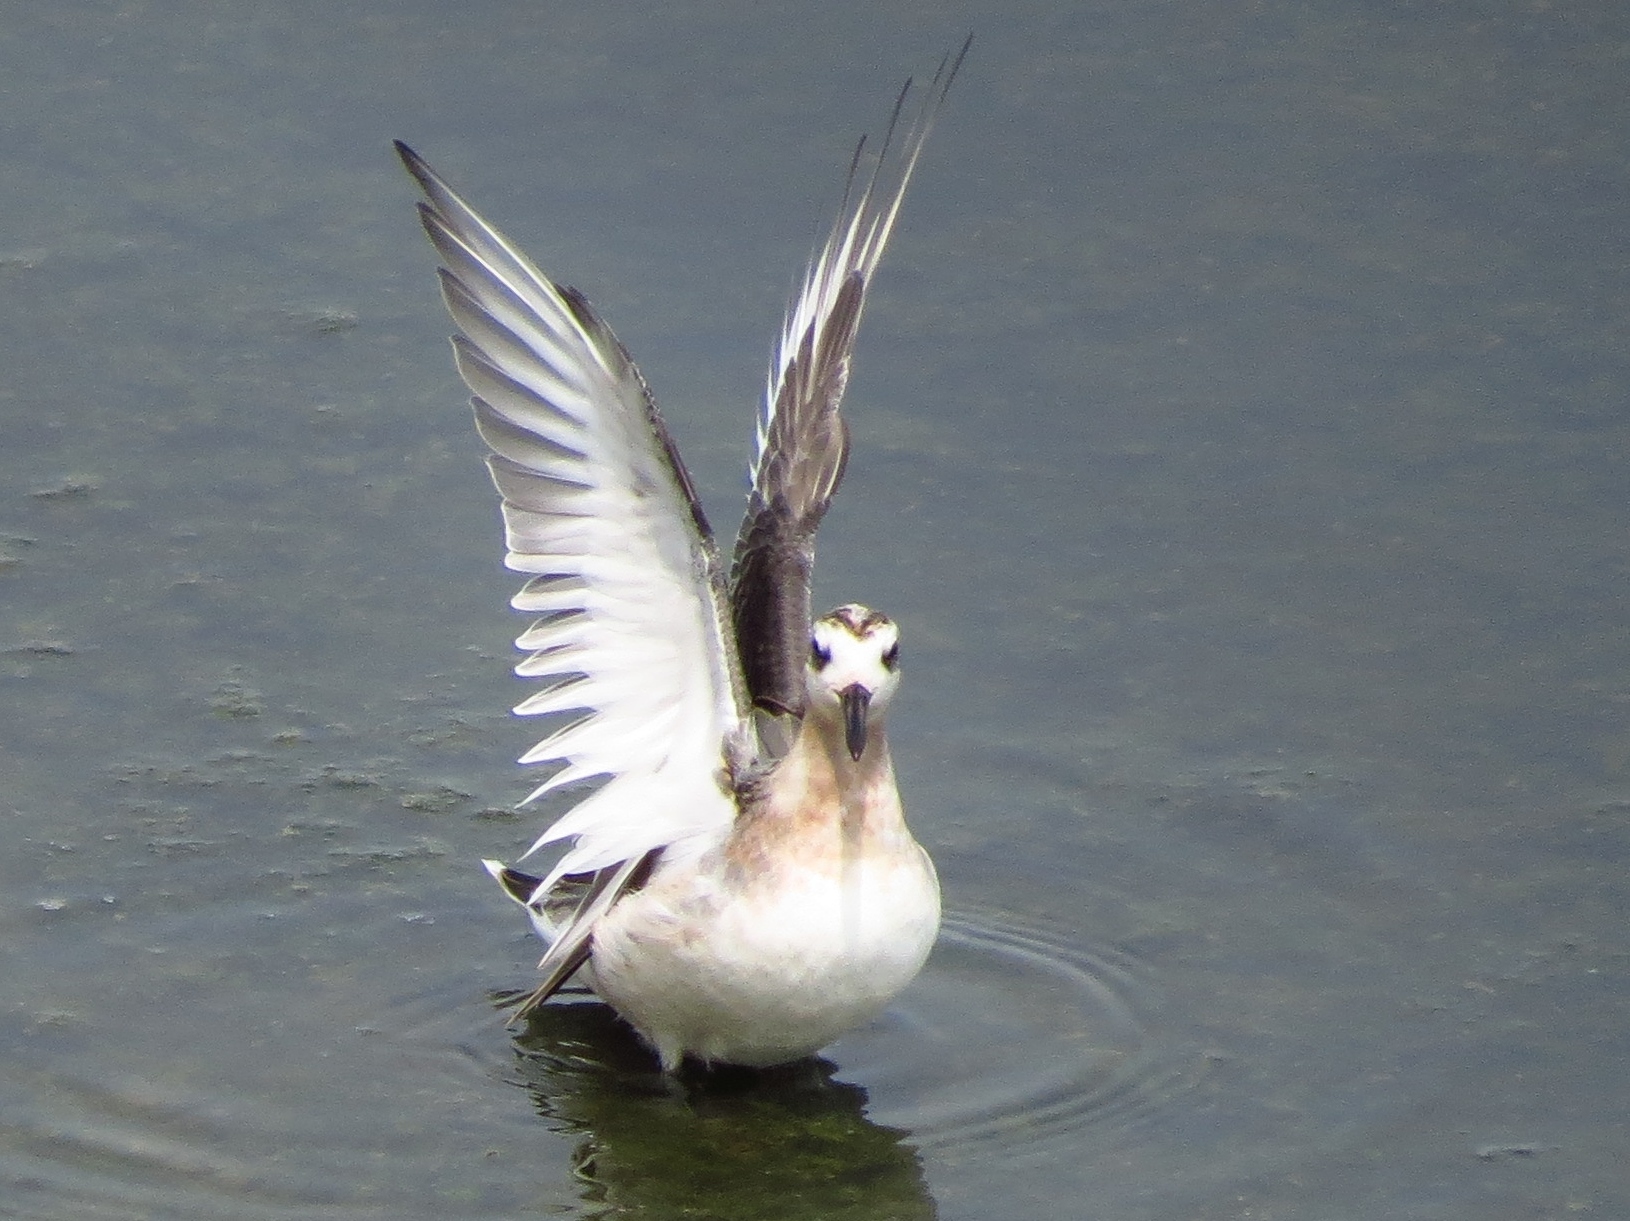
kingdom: Animalia
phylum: Chordata
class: Aves
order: Charadriiformes
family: Scolopacidae
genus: Phalaropus
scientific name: Phalaropus fulicarius
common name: Red phalarope
